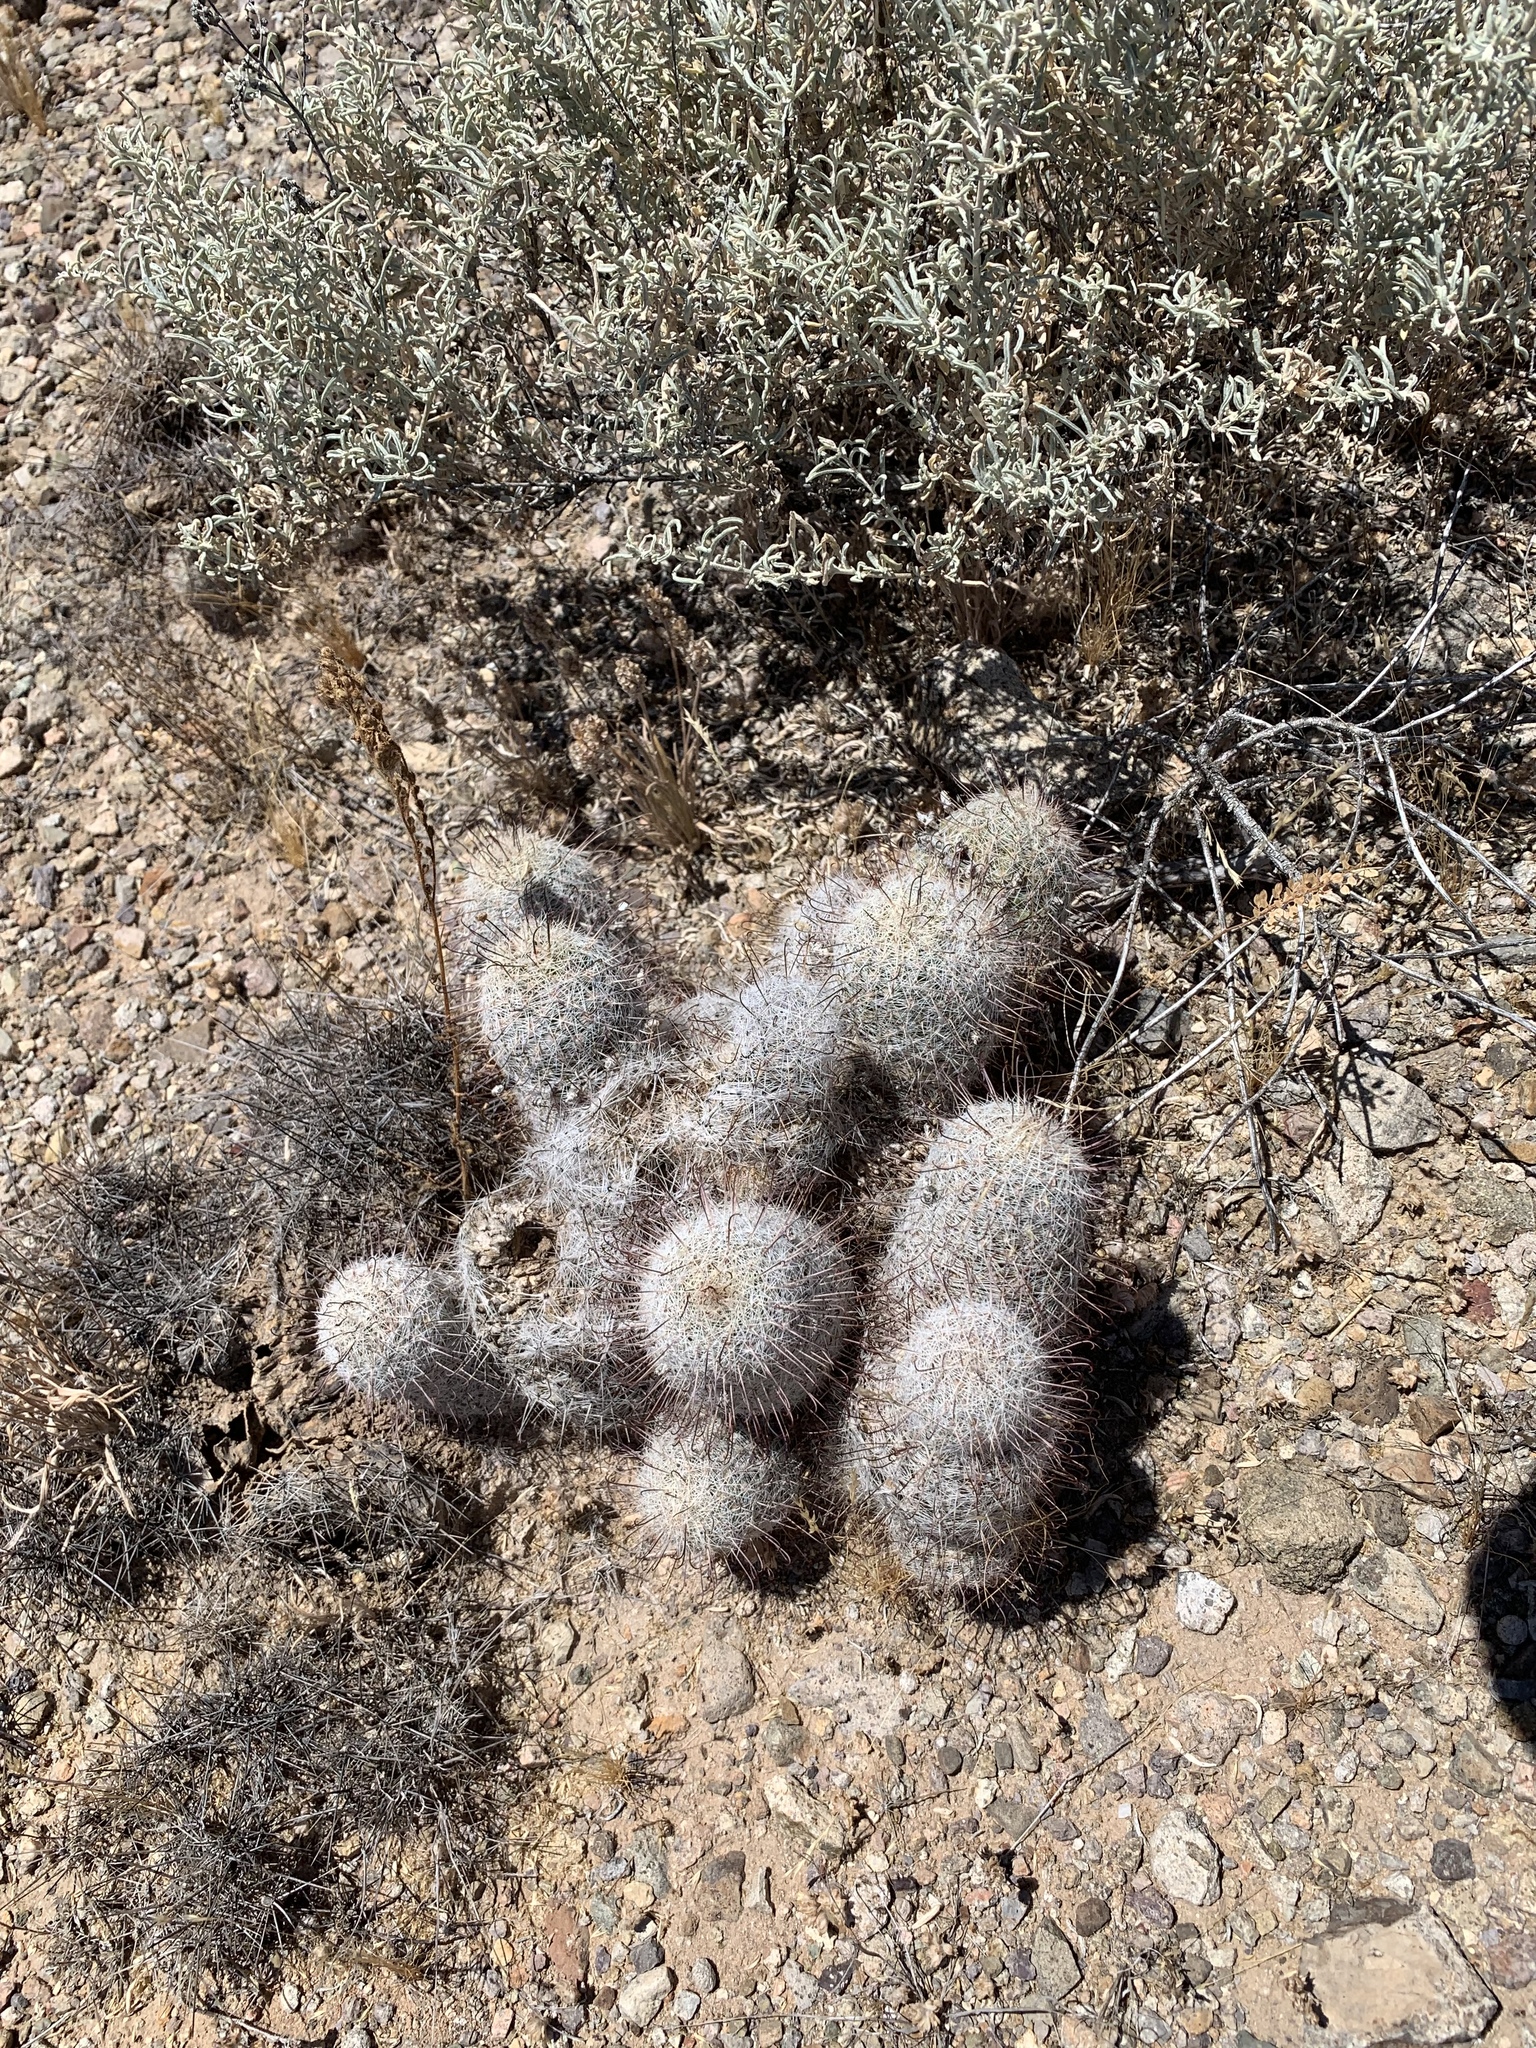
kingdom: Plantae
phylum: Tracheophyta
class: Magnoliopsida
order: Caryophyllales
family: Cactaceae
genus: Cochemiea
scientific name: Cochemiea grahamii
